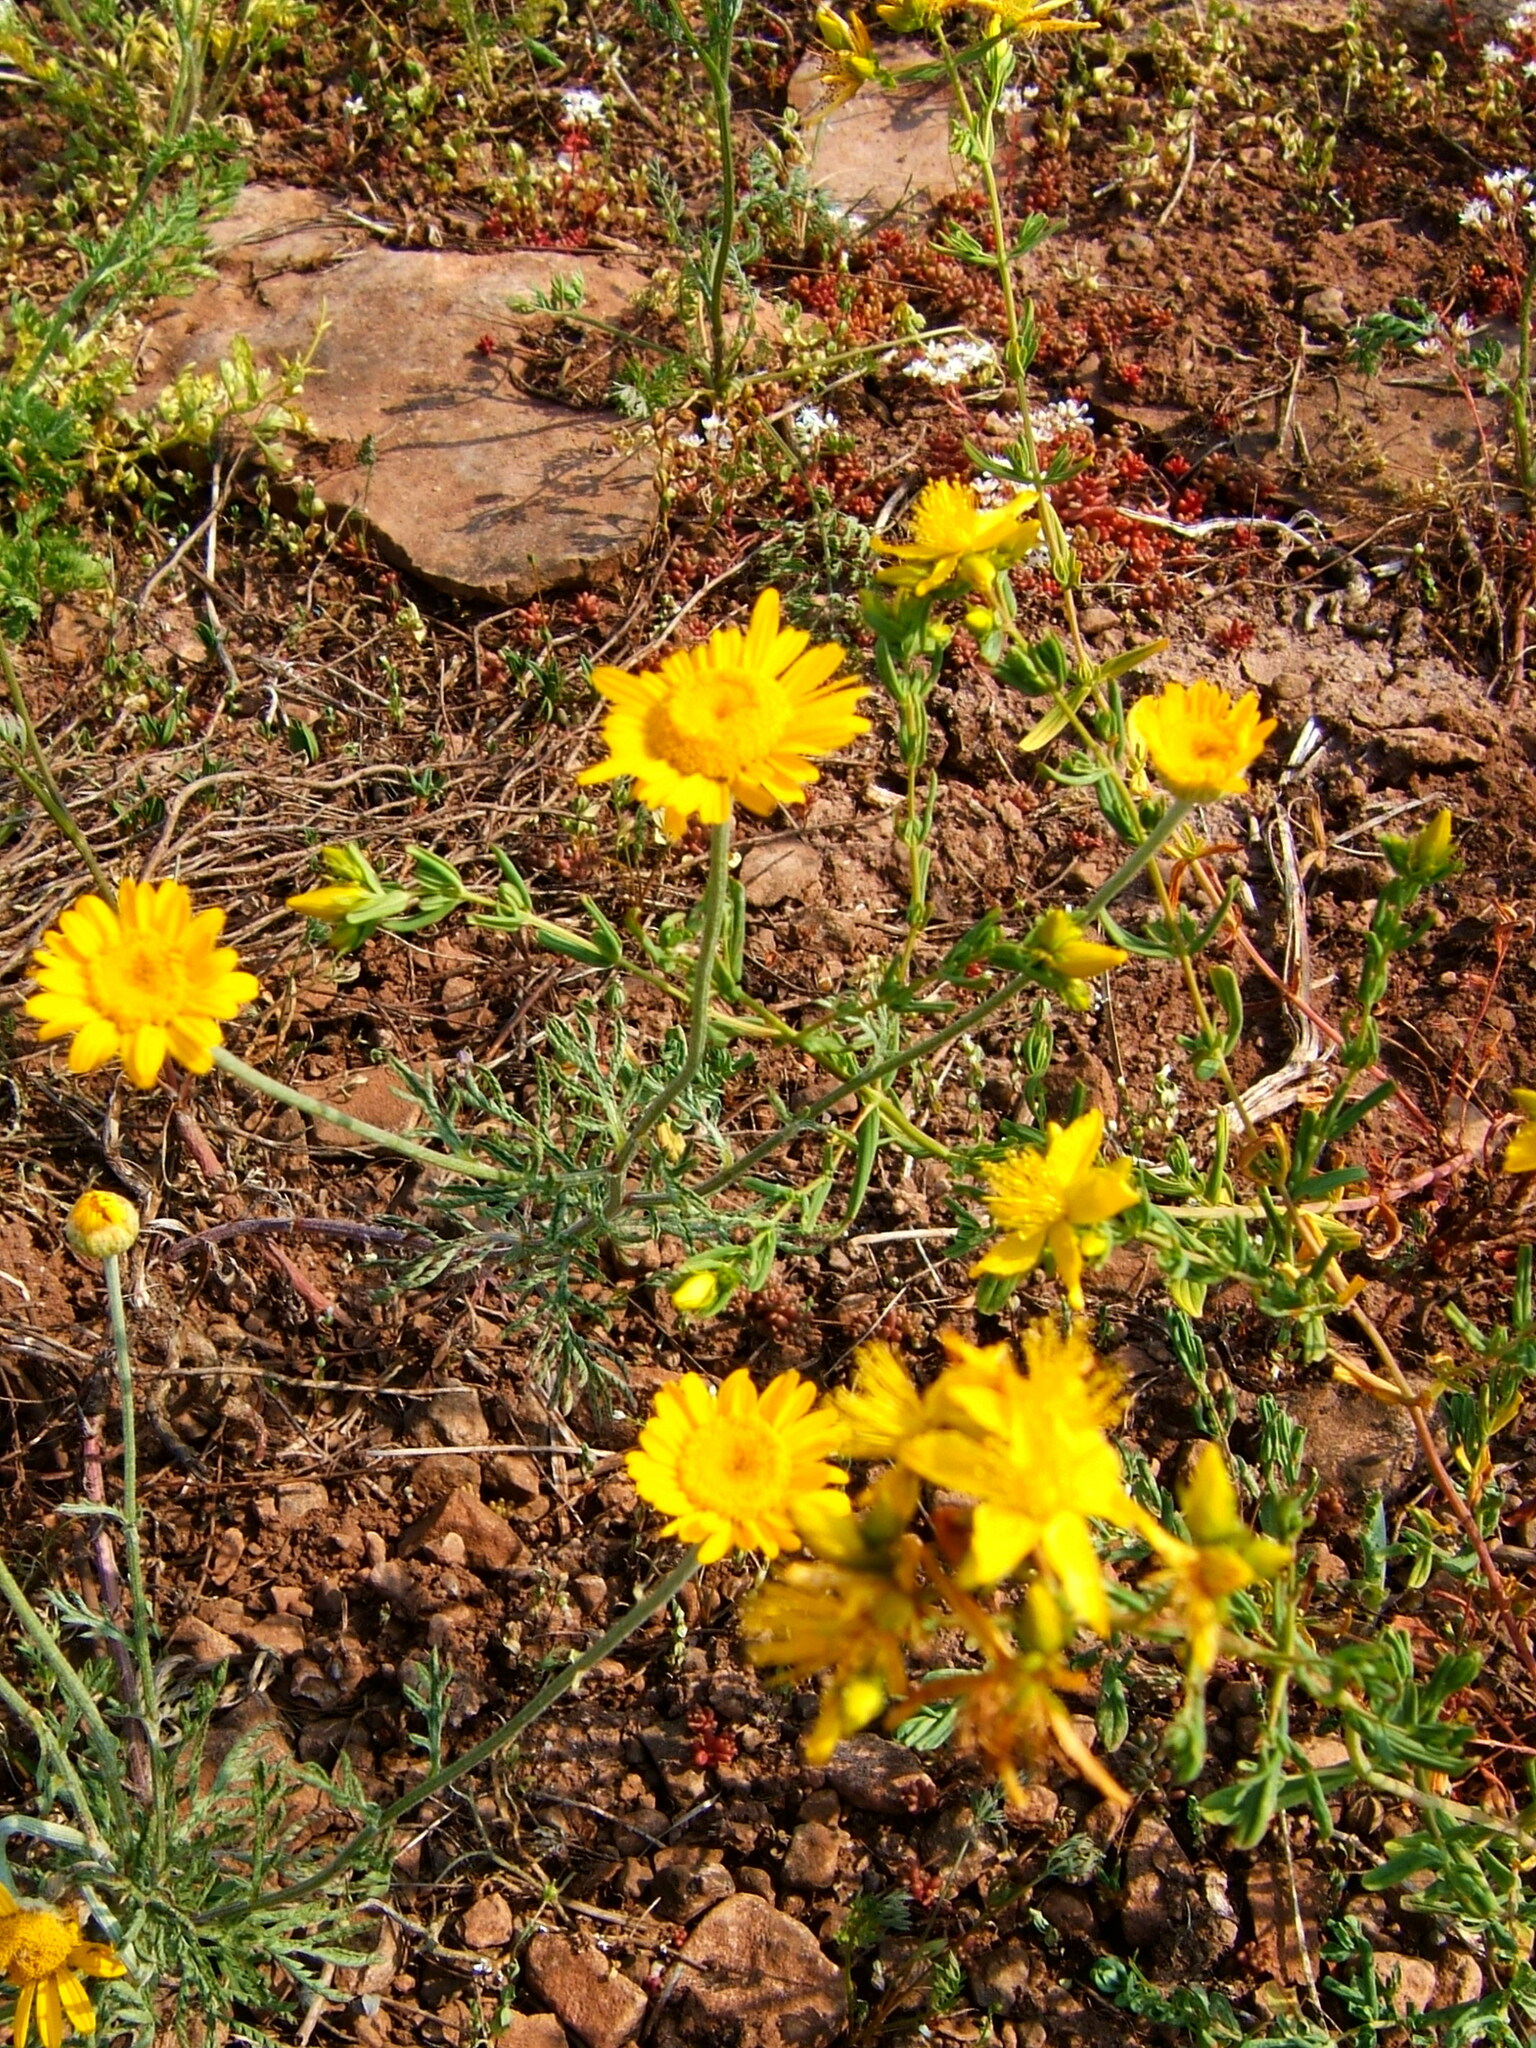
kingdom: Plantae
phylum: Tracheophyta
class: Magnoliopsida
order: Asterales
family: Asteraceae
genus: Cota
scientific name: Cota tinctoria
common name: Golden chamomile
